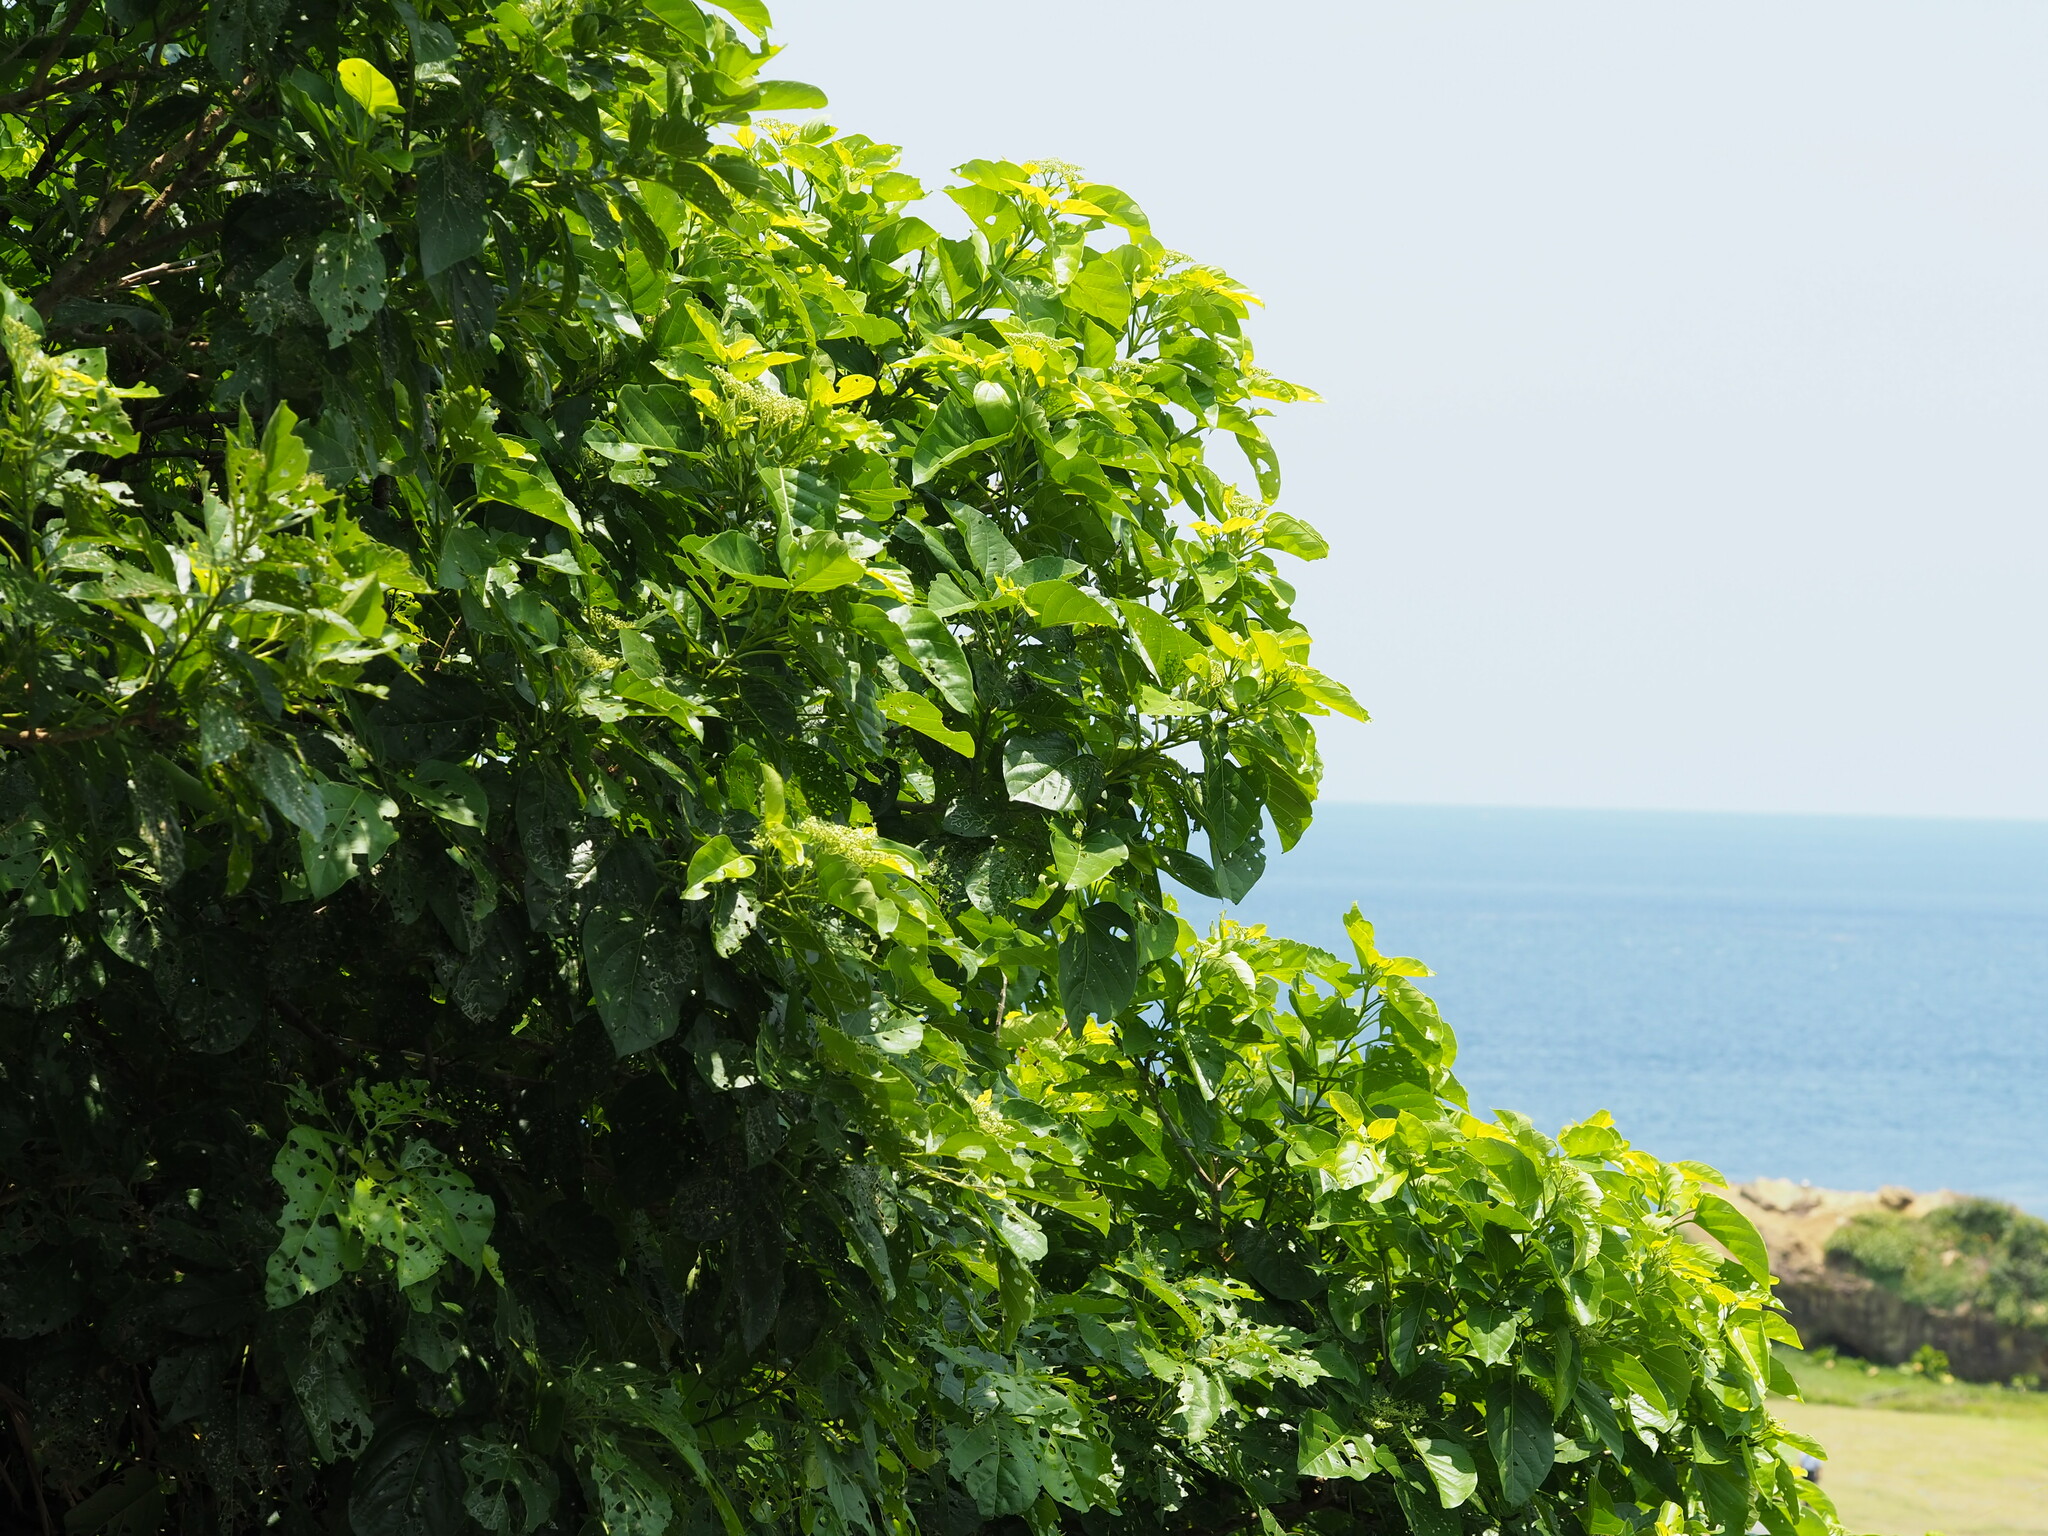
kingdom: Plantae
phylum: Tracheophyta
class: Magnoliopsida
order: Lamiales
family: Lamiaceae
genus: Premna
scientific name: Premna serratifolia
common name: Bastard guelder
